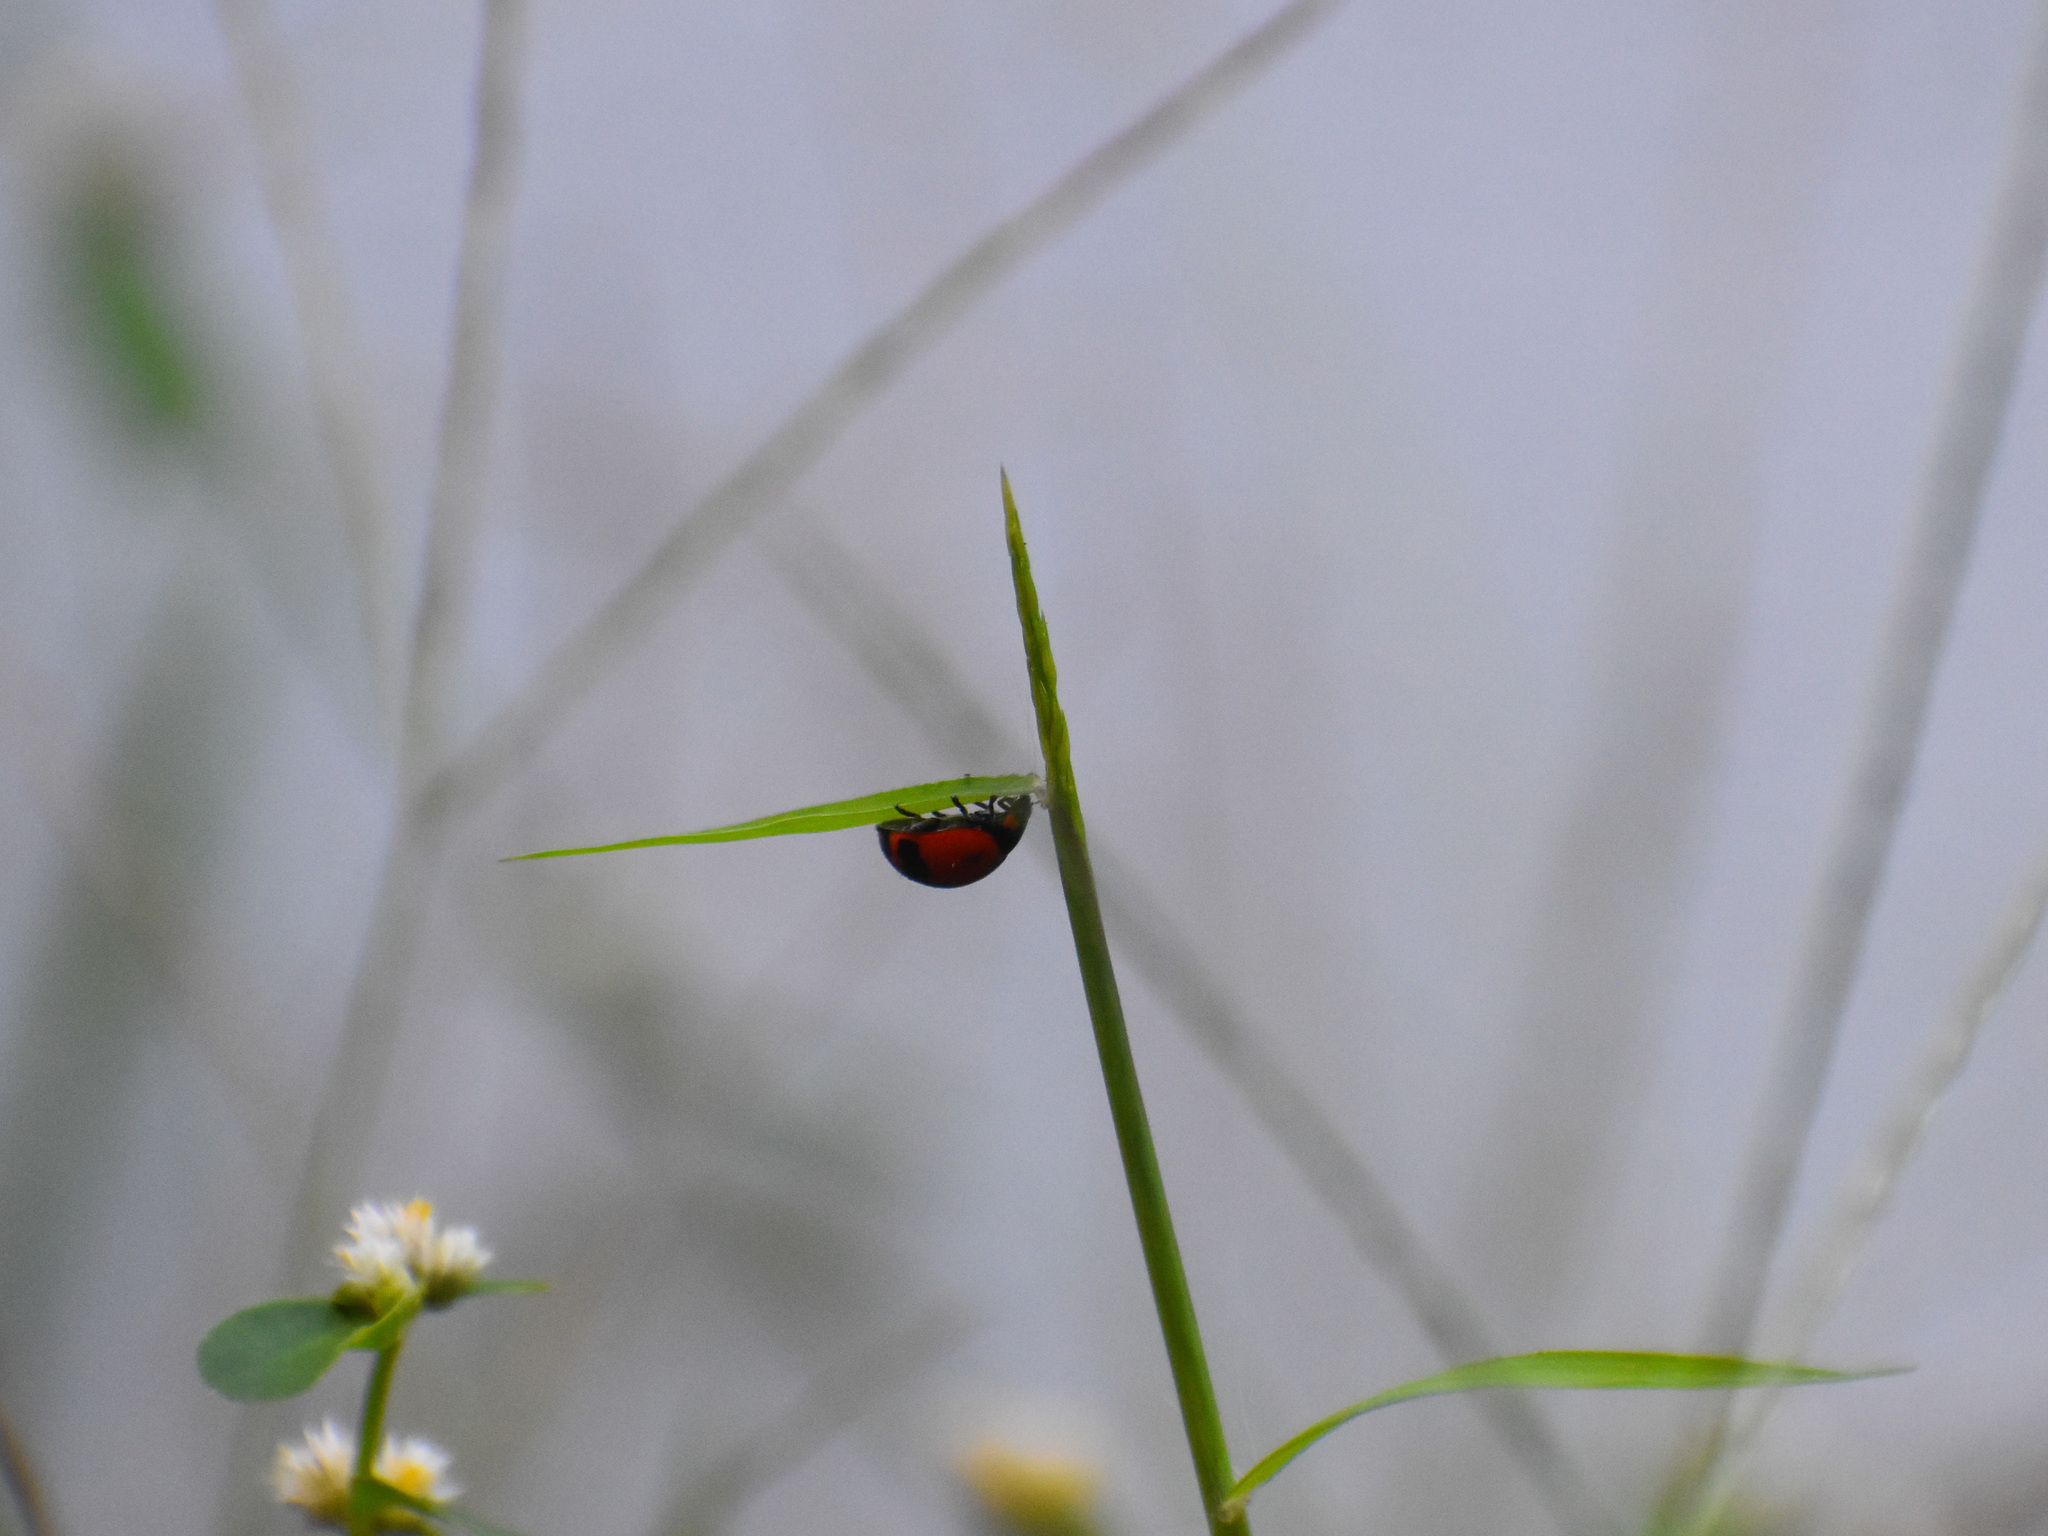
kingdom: Animalia
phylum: Arthropoda
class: Insecta
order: Coleoptera
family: Coccinellidae
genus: Coccinella
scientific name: Coccinella transversalis
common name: Transverse lady beetle
